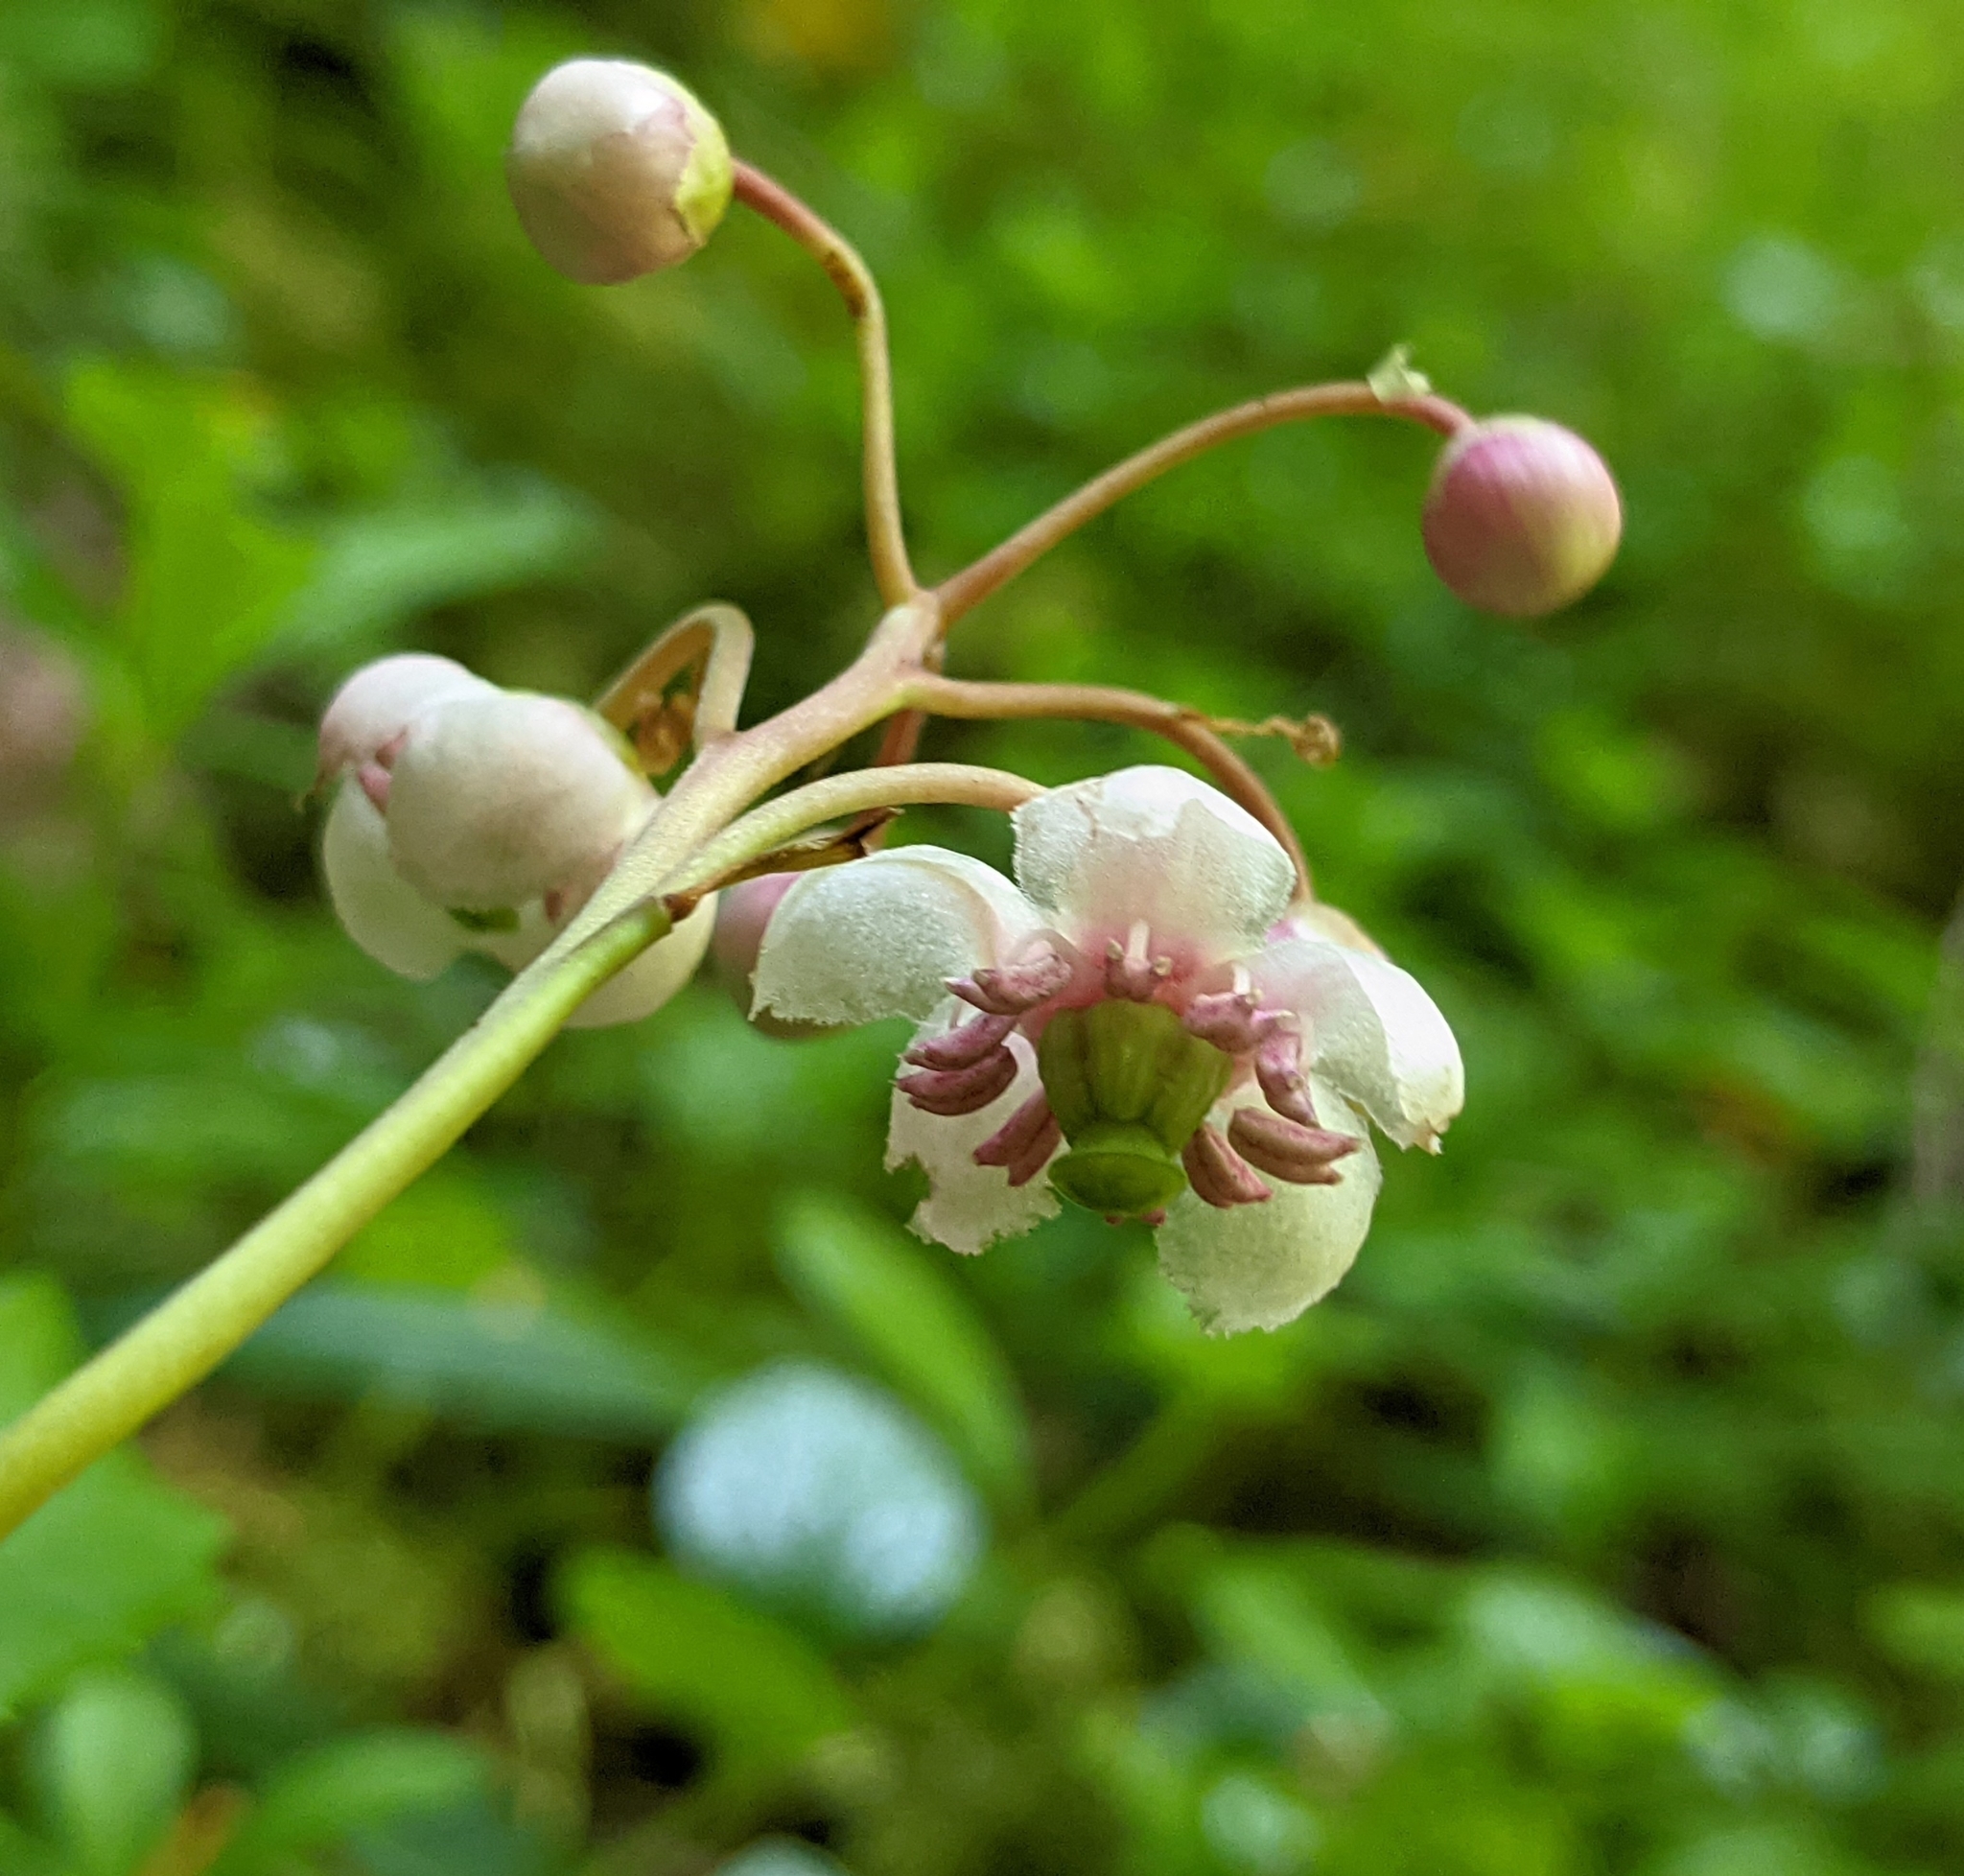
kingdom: Plantae
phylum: Tracheophyta
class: Magnoliopsida
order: Ericales
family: Ericaceae
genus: Chimaphila
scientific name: Chimaphila umbellata
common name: Pipsissewa
